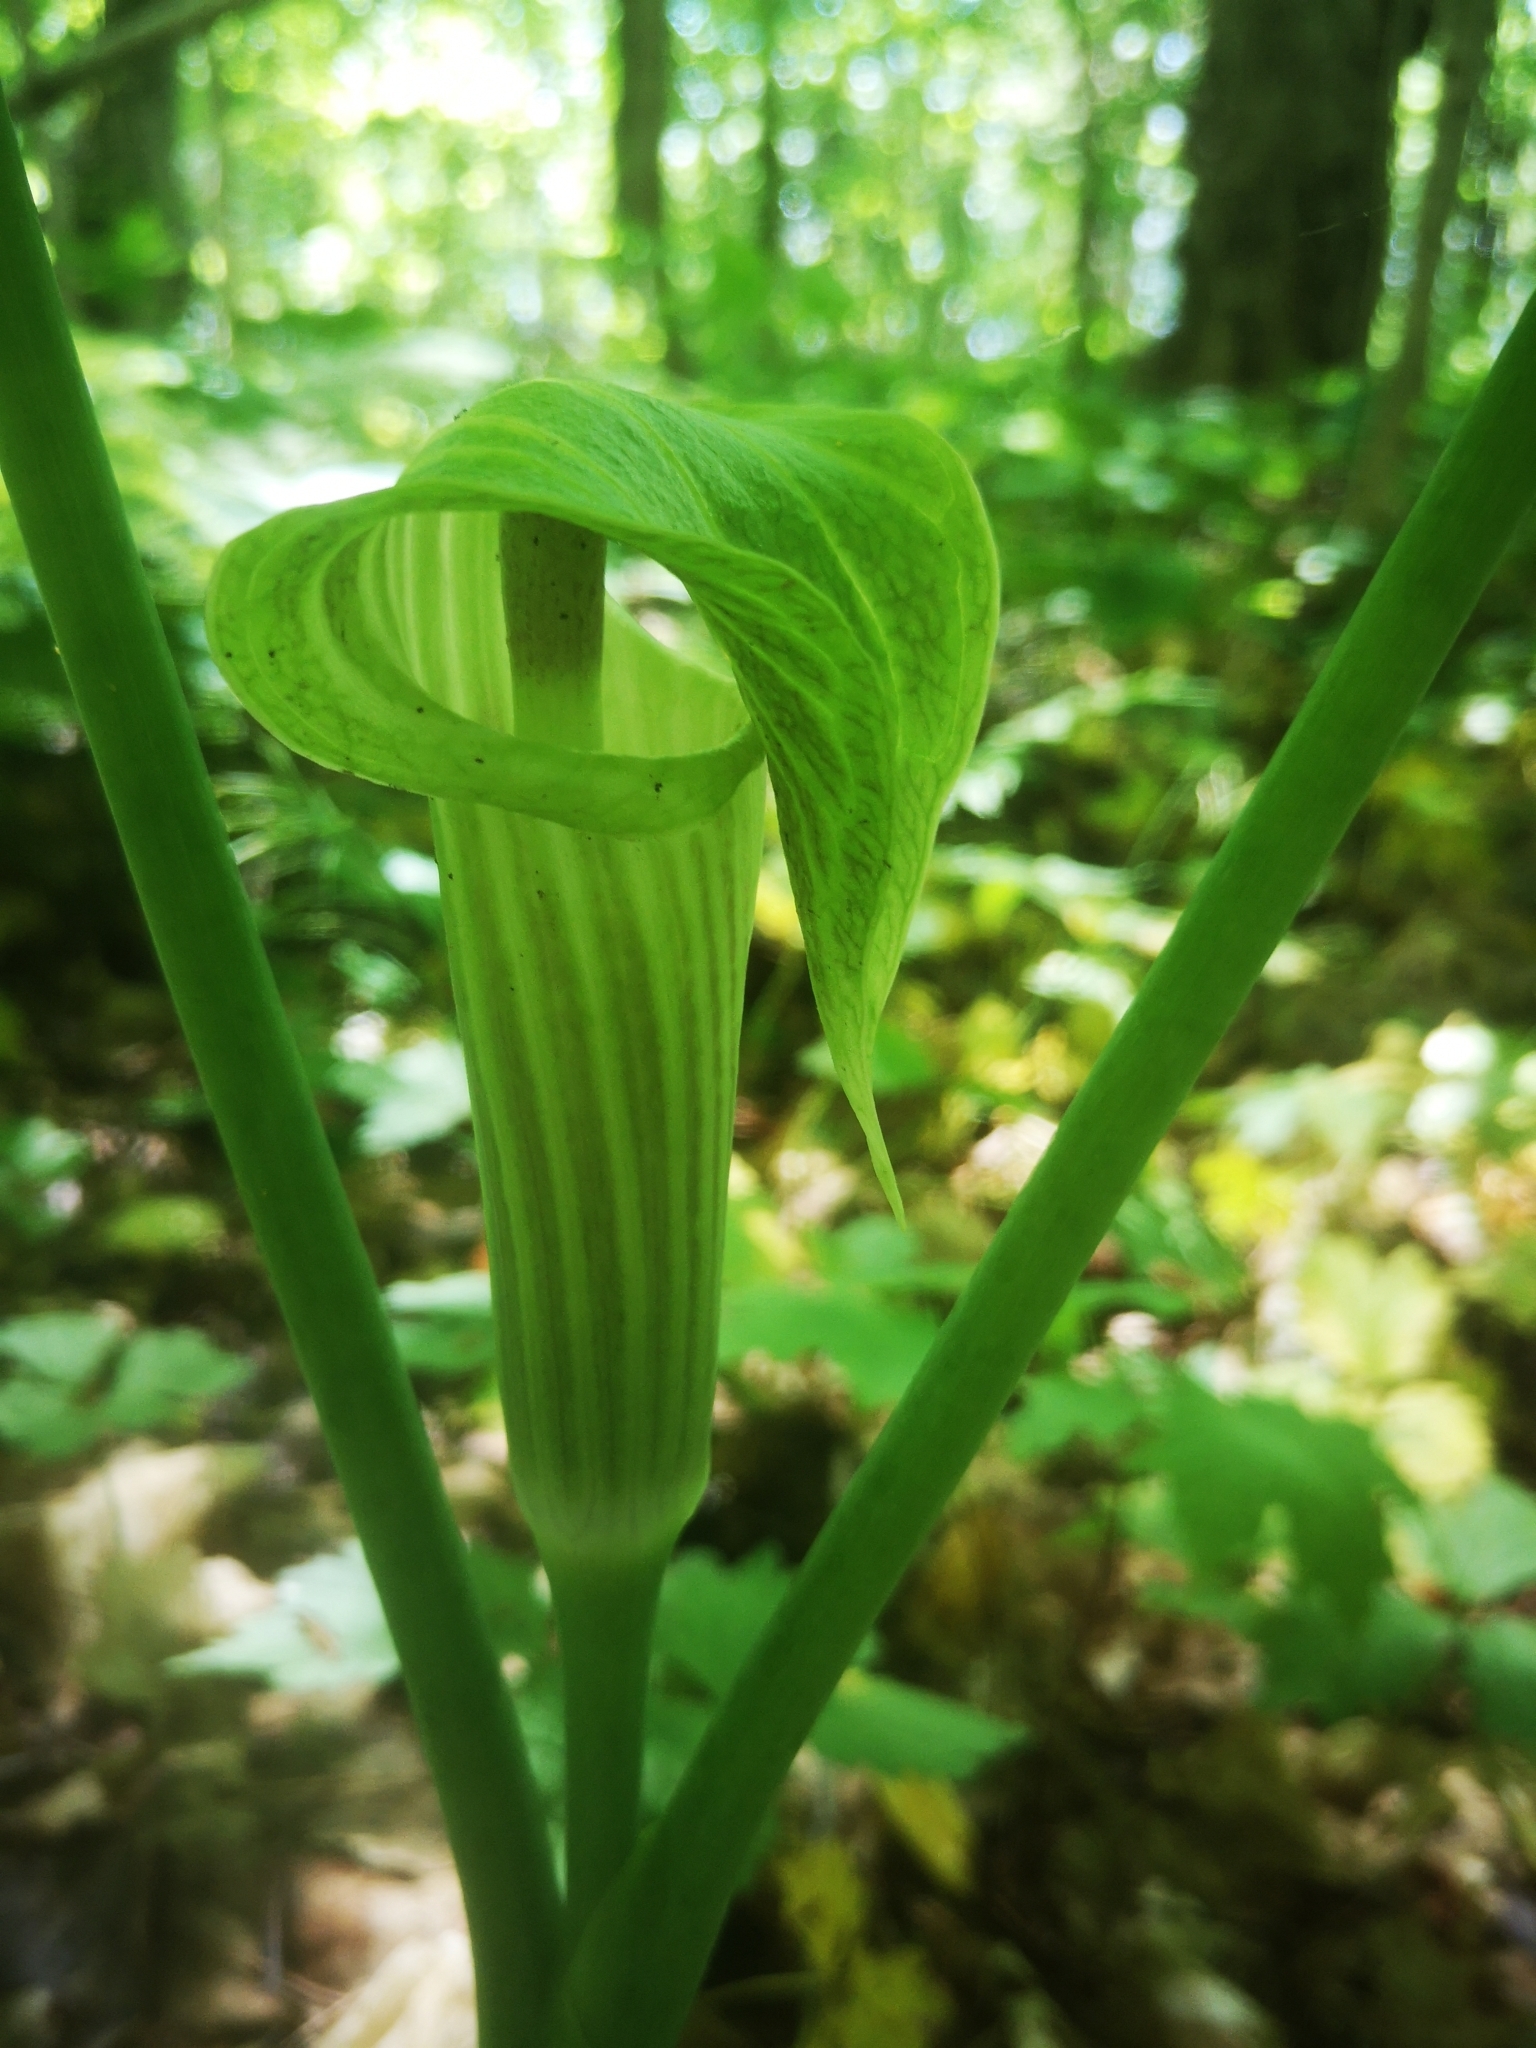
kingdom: Plantae
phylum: Tracheophyta
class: Liliopsida
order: Alismatales
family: Araceae
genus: Arisaema
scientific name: Arisaema triphyllum
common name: Jack-in-the-pulpit
